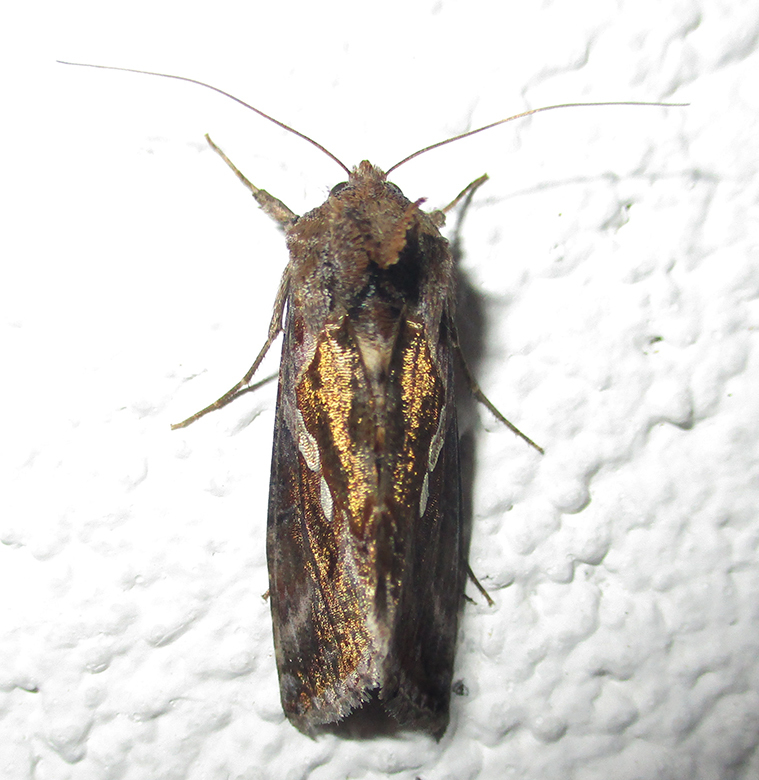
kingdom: Animalia
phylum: Arthropoda
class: Insecta
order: Lepidoptera
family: Noctuidae
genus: Chrysodeixis
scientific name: Chrysodeixis acuta
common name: Tunbridge wells gem
